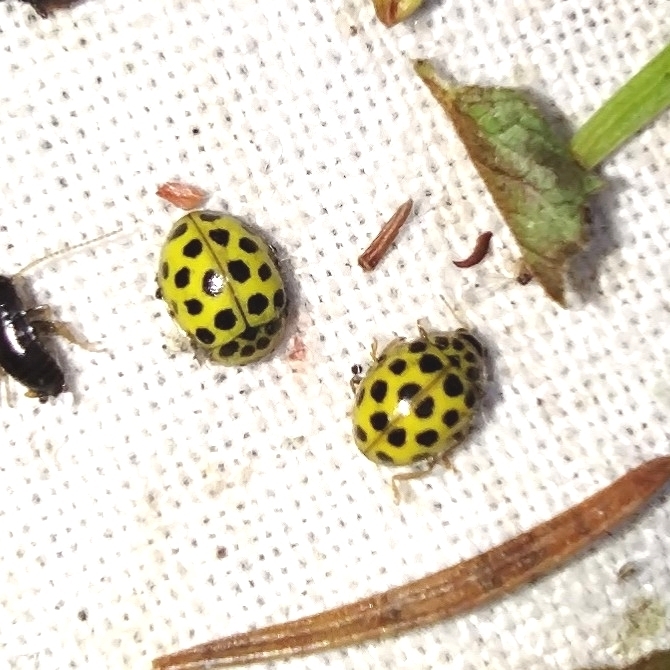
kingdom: Animalia
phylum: Arthropoda
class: Insecta
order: Coleoptera
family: Coccinellidae
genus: Psyllobora
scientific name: Psyllobora vigintiduopunctata
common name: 22-spot ladybird
